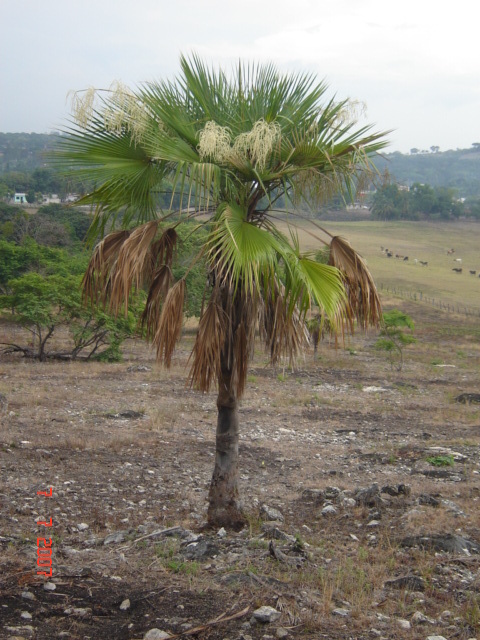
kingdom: Plantae
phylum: Tracheophyta
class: Liliopsida
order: Arecales
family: Arecaceae
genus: Brahea
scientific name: Brahea dulcis
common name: Apak palm
